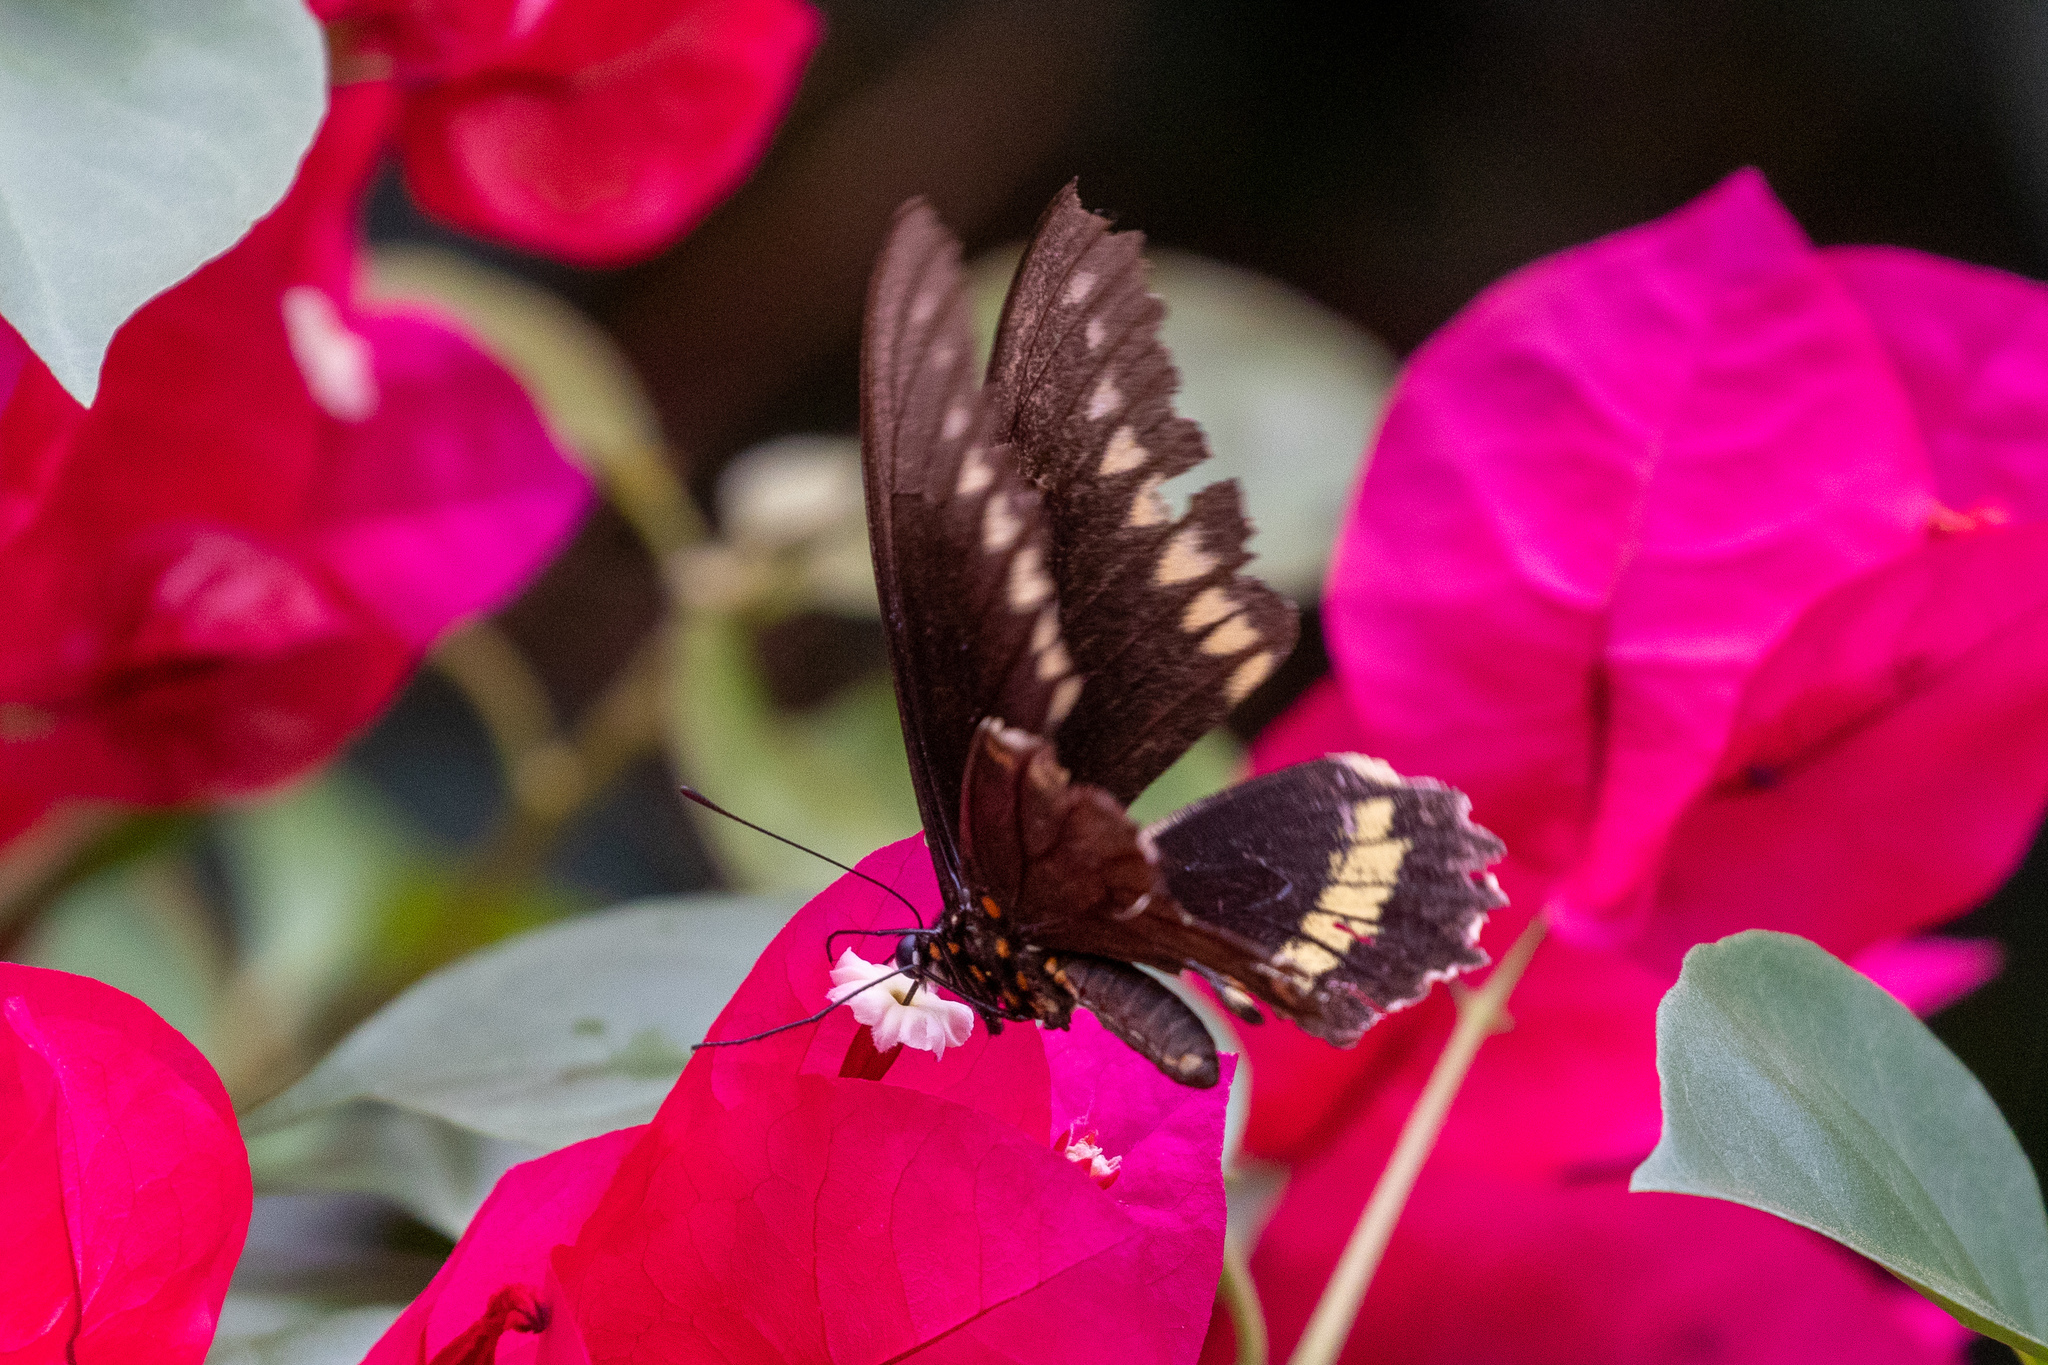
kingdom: Animalia
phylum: Arthropoda
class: Insecta
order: Lepidoptera
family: Papilionidae
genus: Battus
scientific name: Battus polydamas
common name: Polydamas swallowtail
